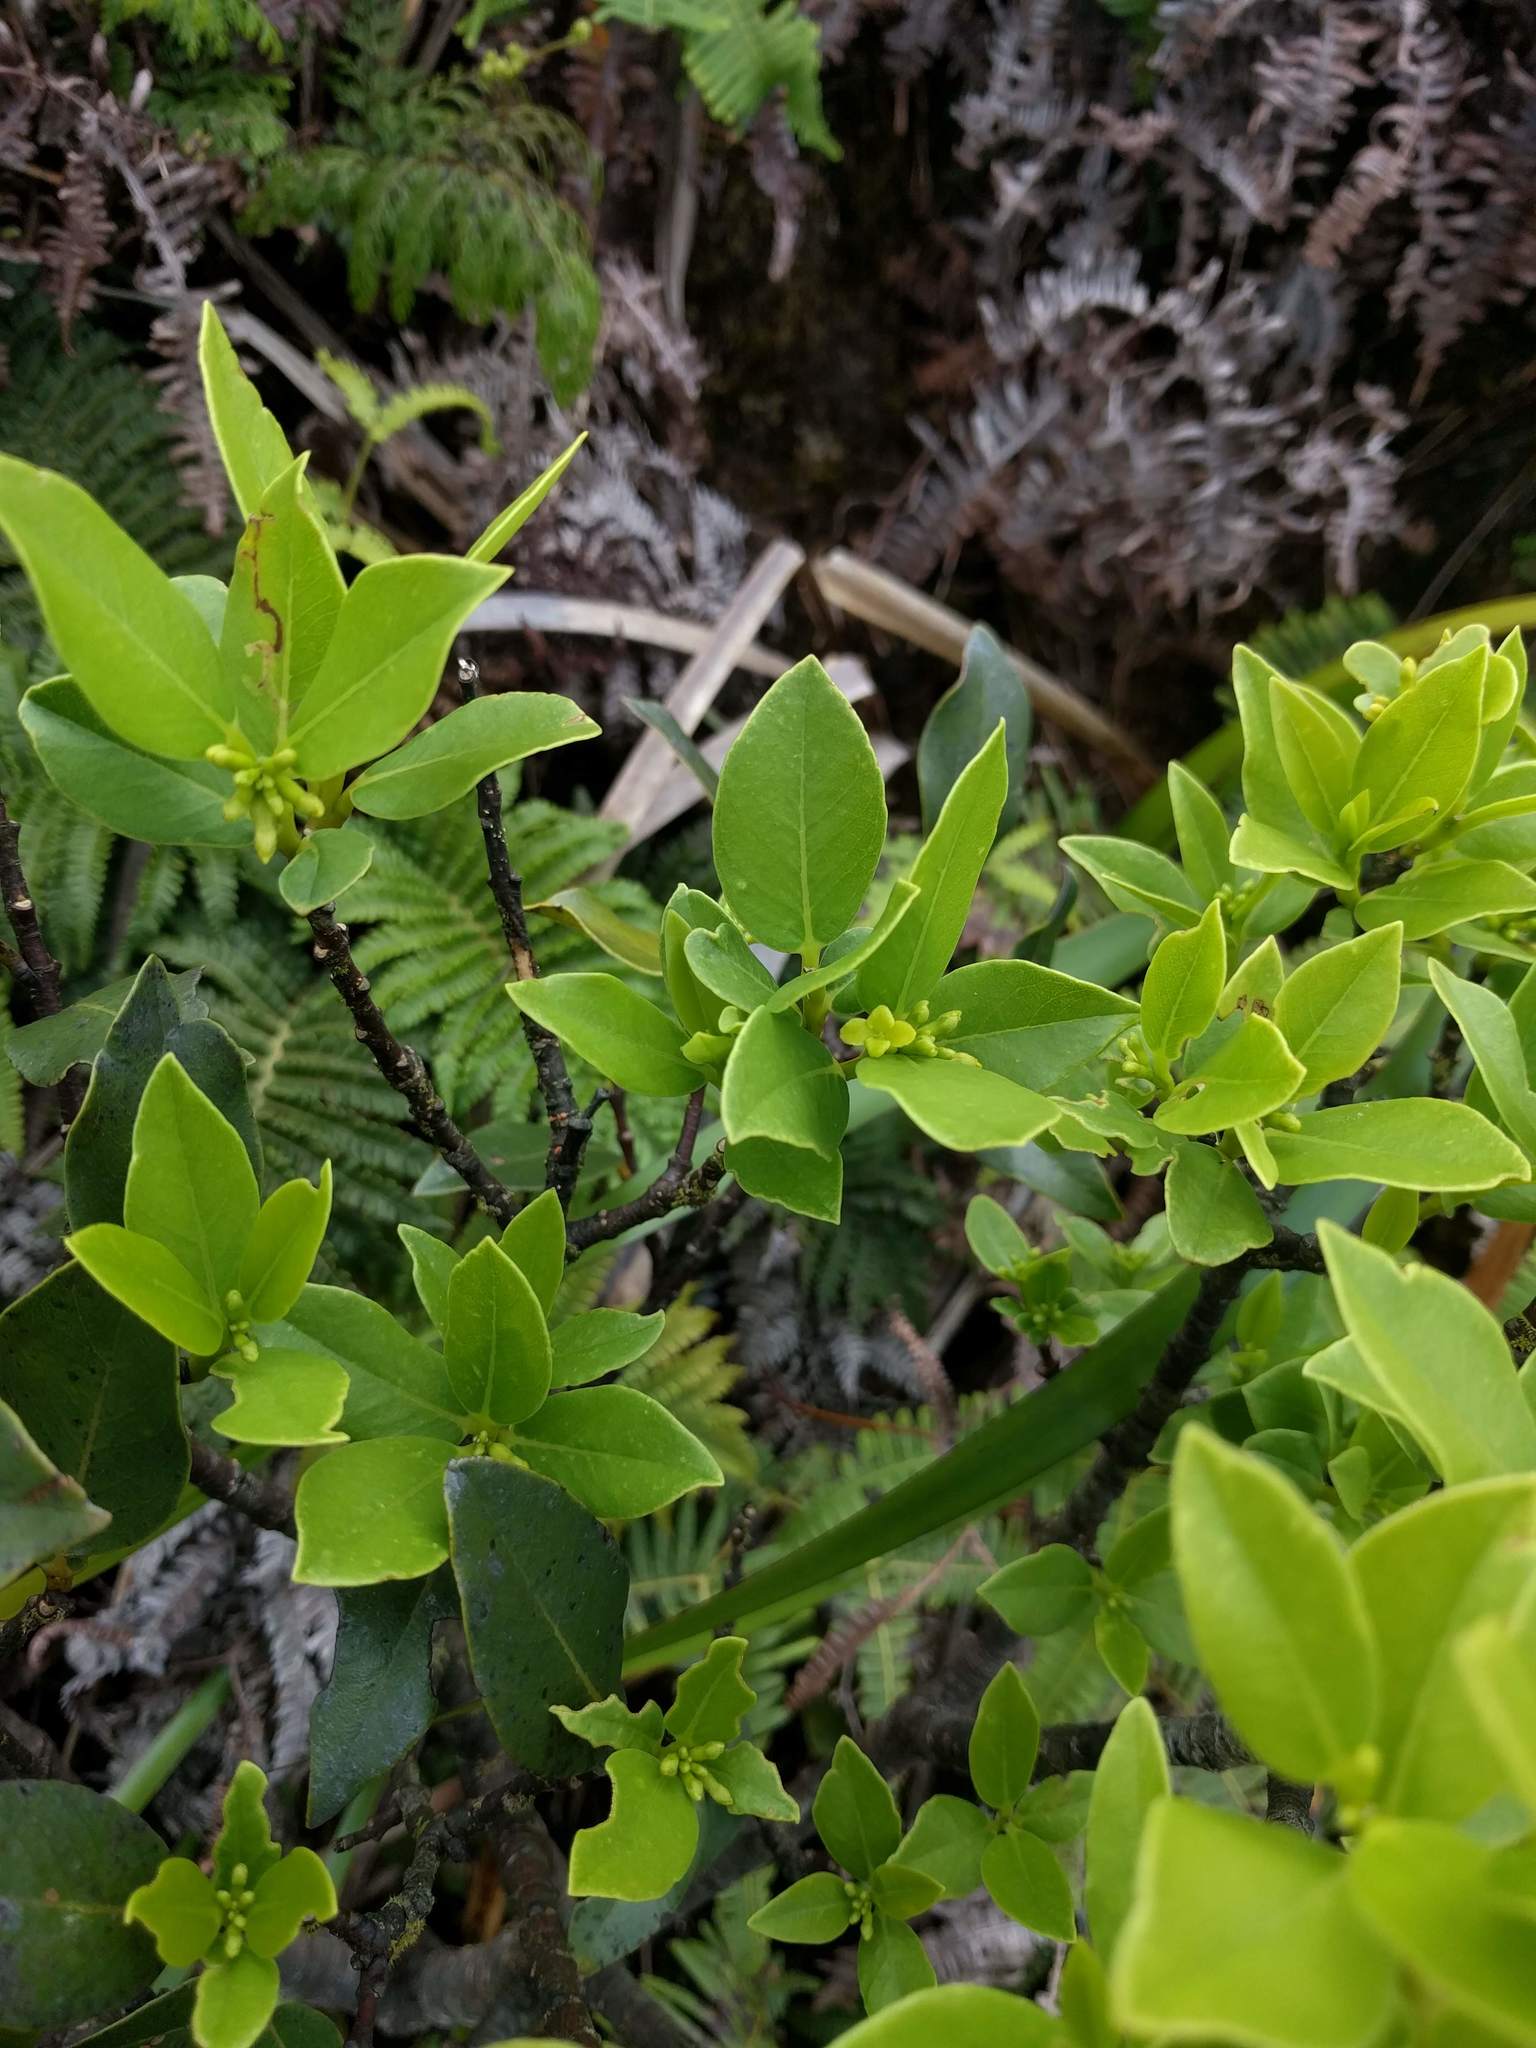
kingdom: Plantae
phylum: Tracheophyta
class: Magnoliopsida
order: Malvales
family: Thymelaeaceae
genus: Wikstroemia
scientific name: Wikstroemia oahuensis
